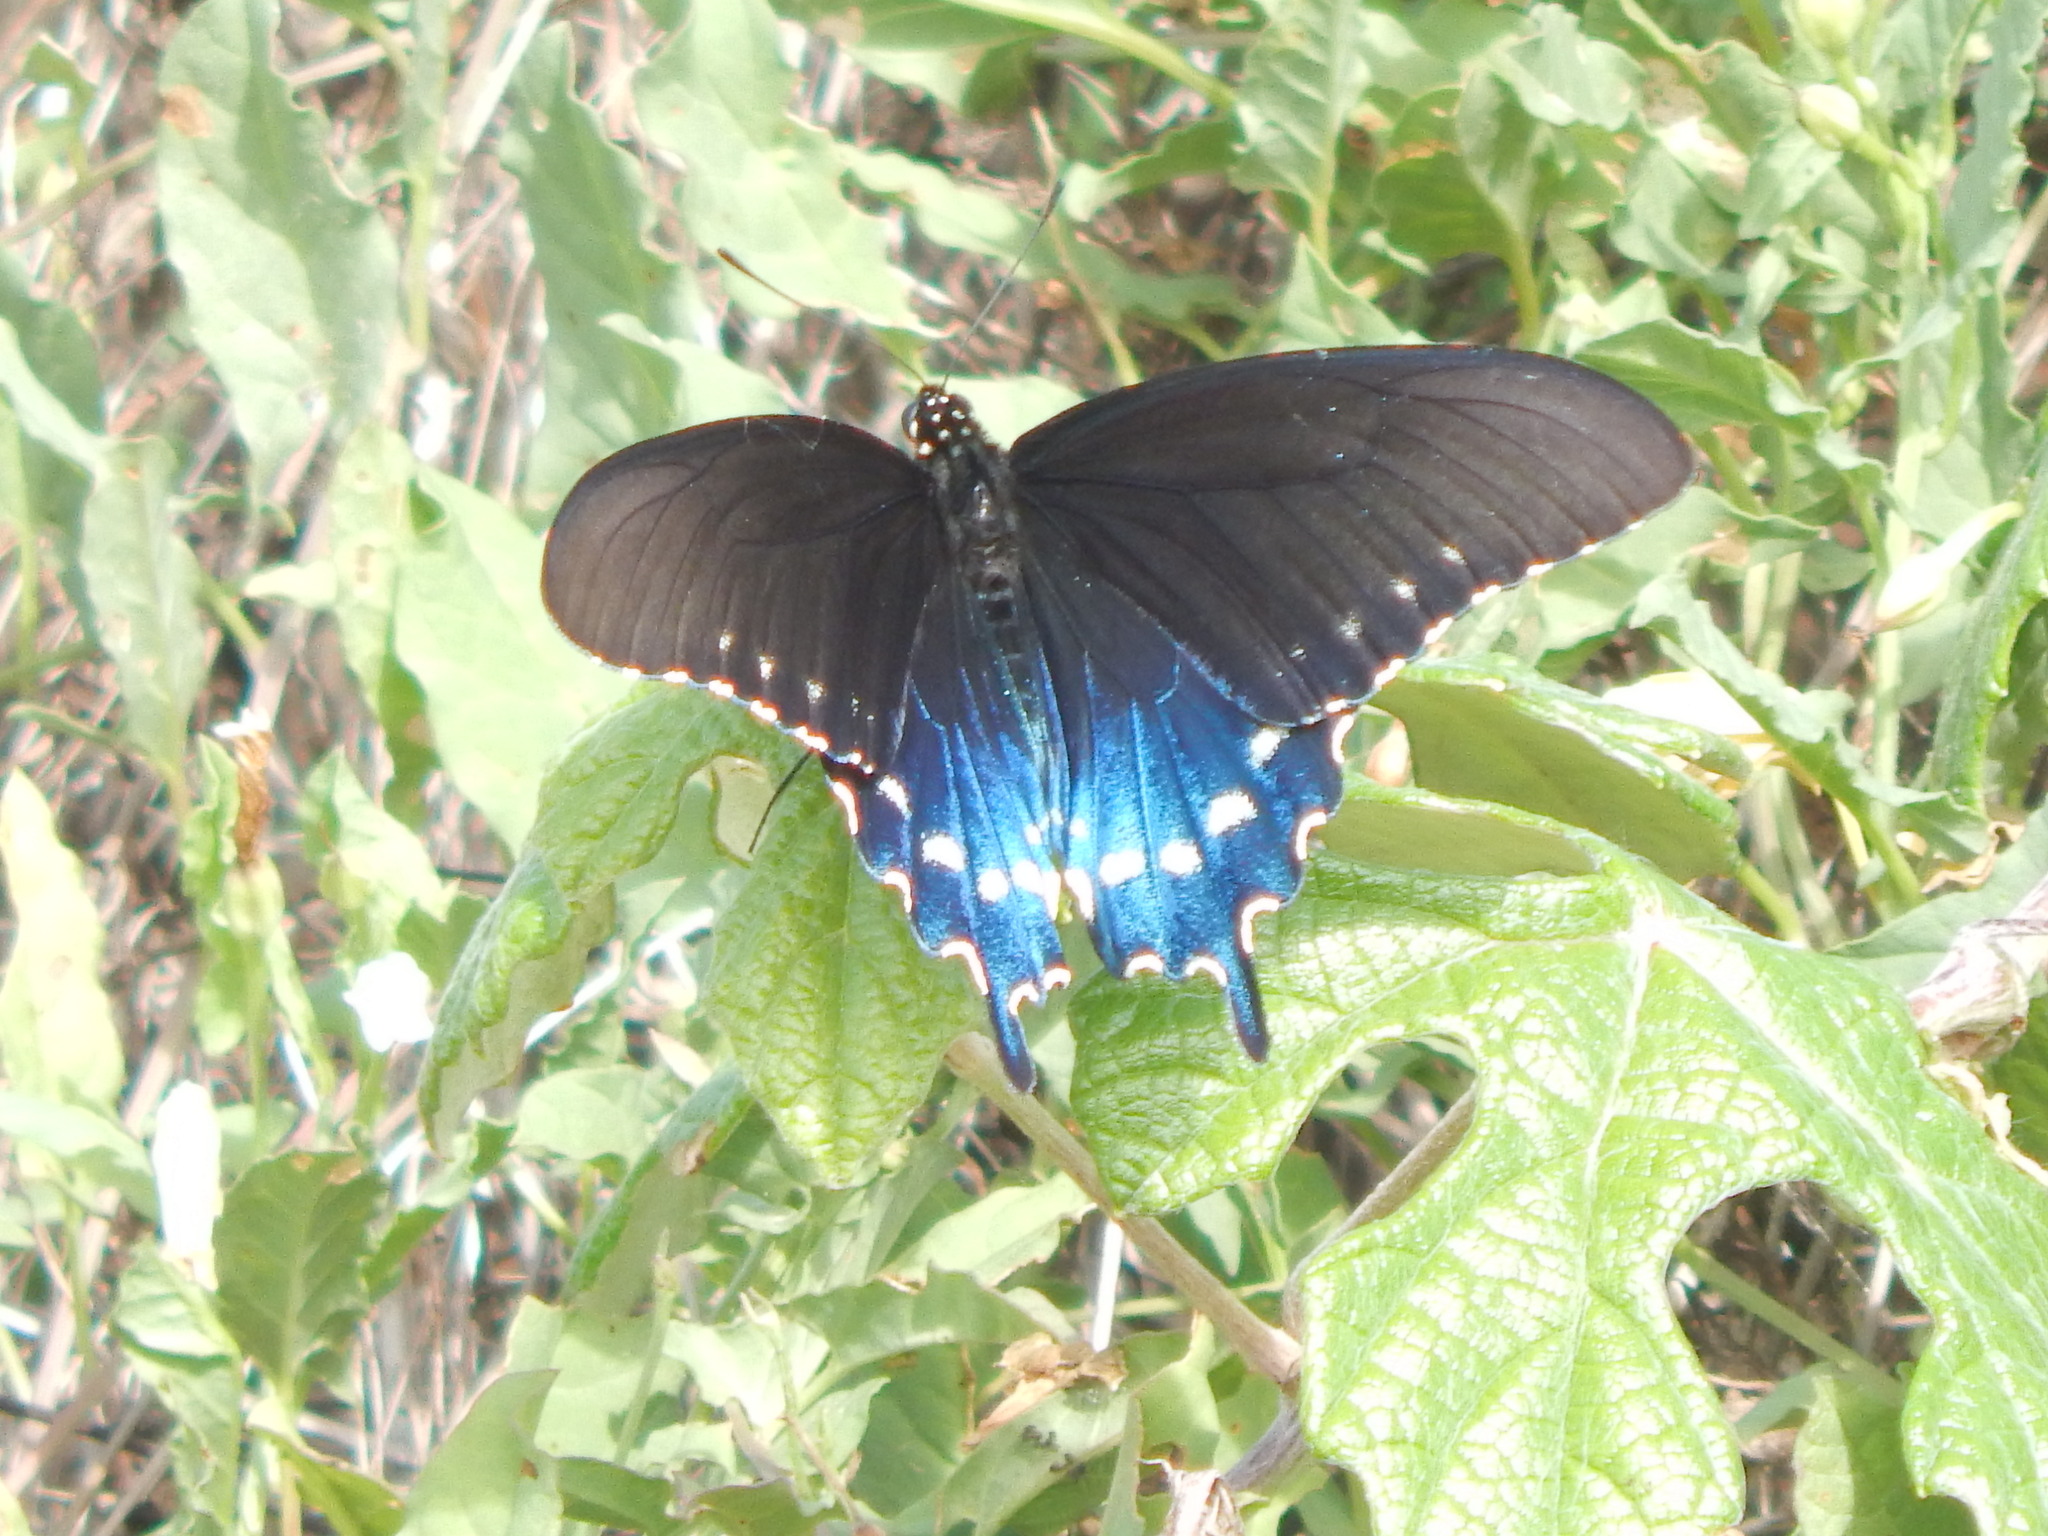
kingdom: Animalia
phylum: Arthropoda
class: Insecta
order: Lepidoptera
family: Papilionidae
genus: Battus
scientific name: Battus philenor
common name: Pipevine swallowtail
